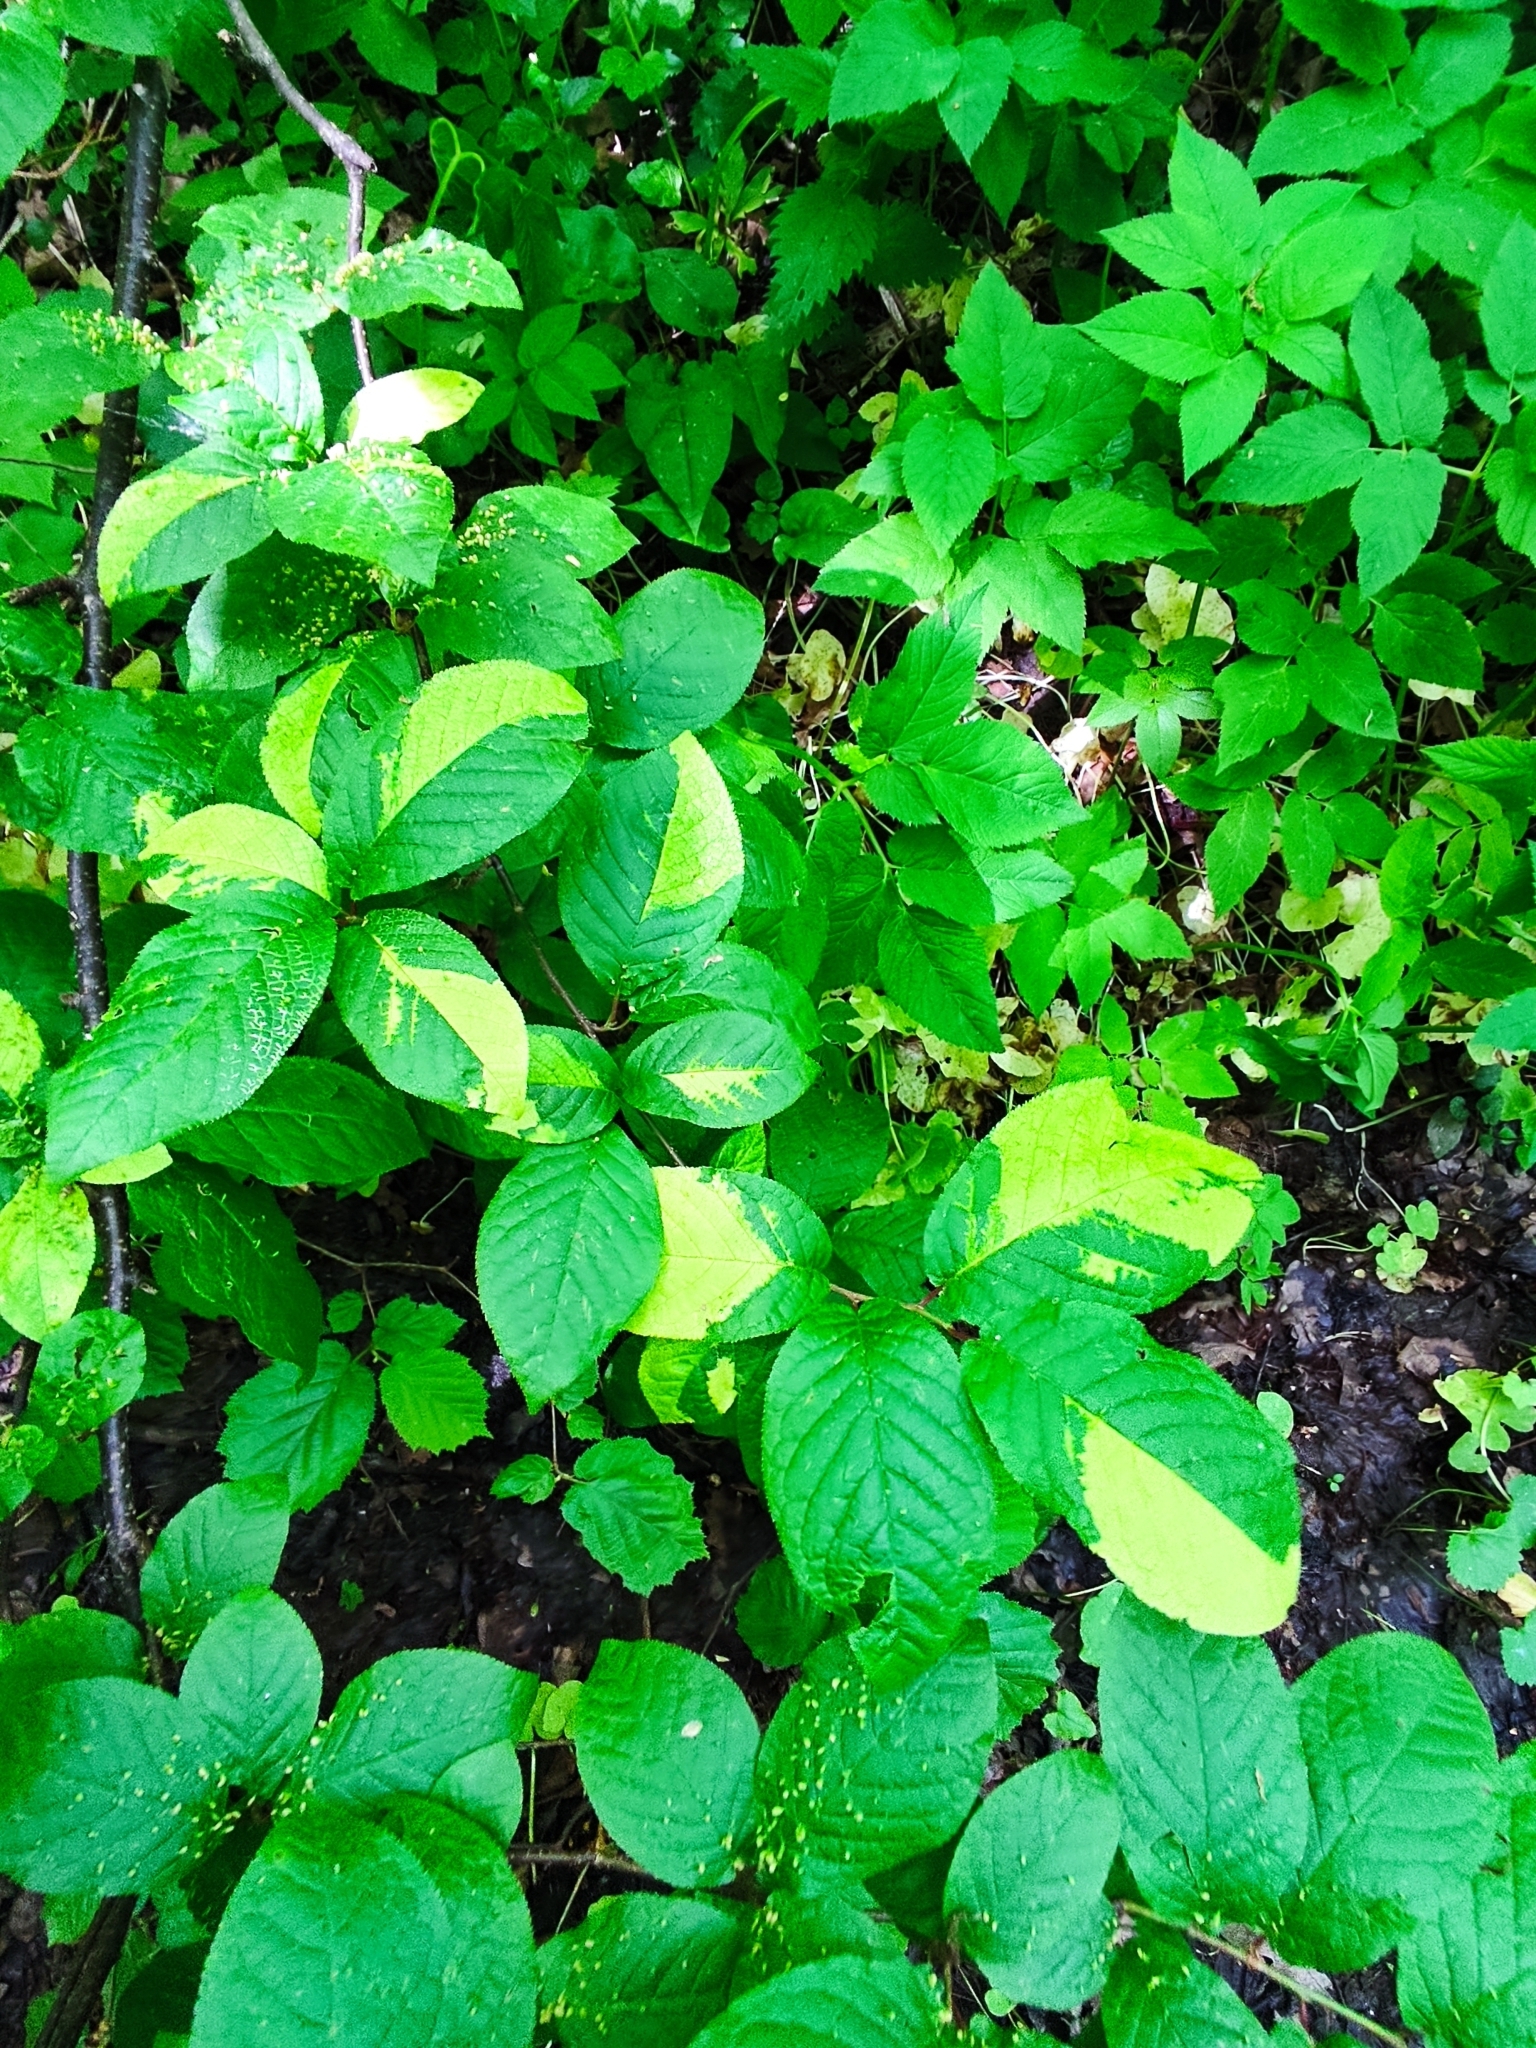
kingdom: Plantae
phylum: Tracheophyta
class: Magnoliopsida
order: Rosales
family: Rosaceae
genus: Prunus
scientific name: Prunus padus
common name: Bird cherry
